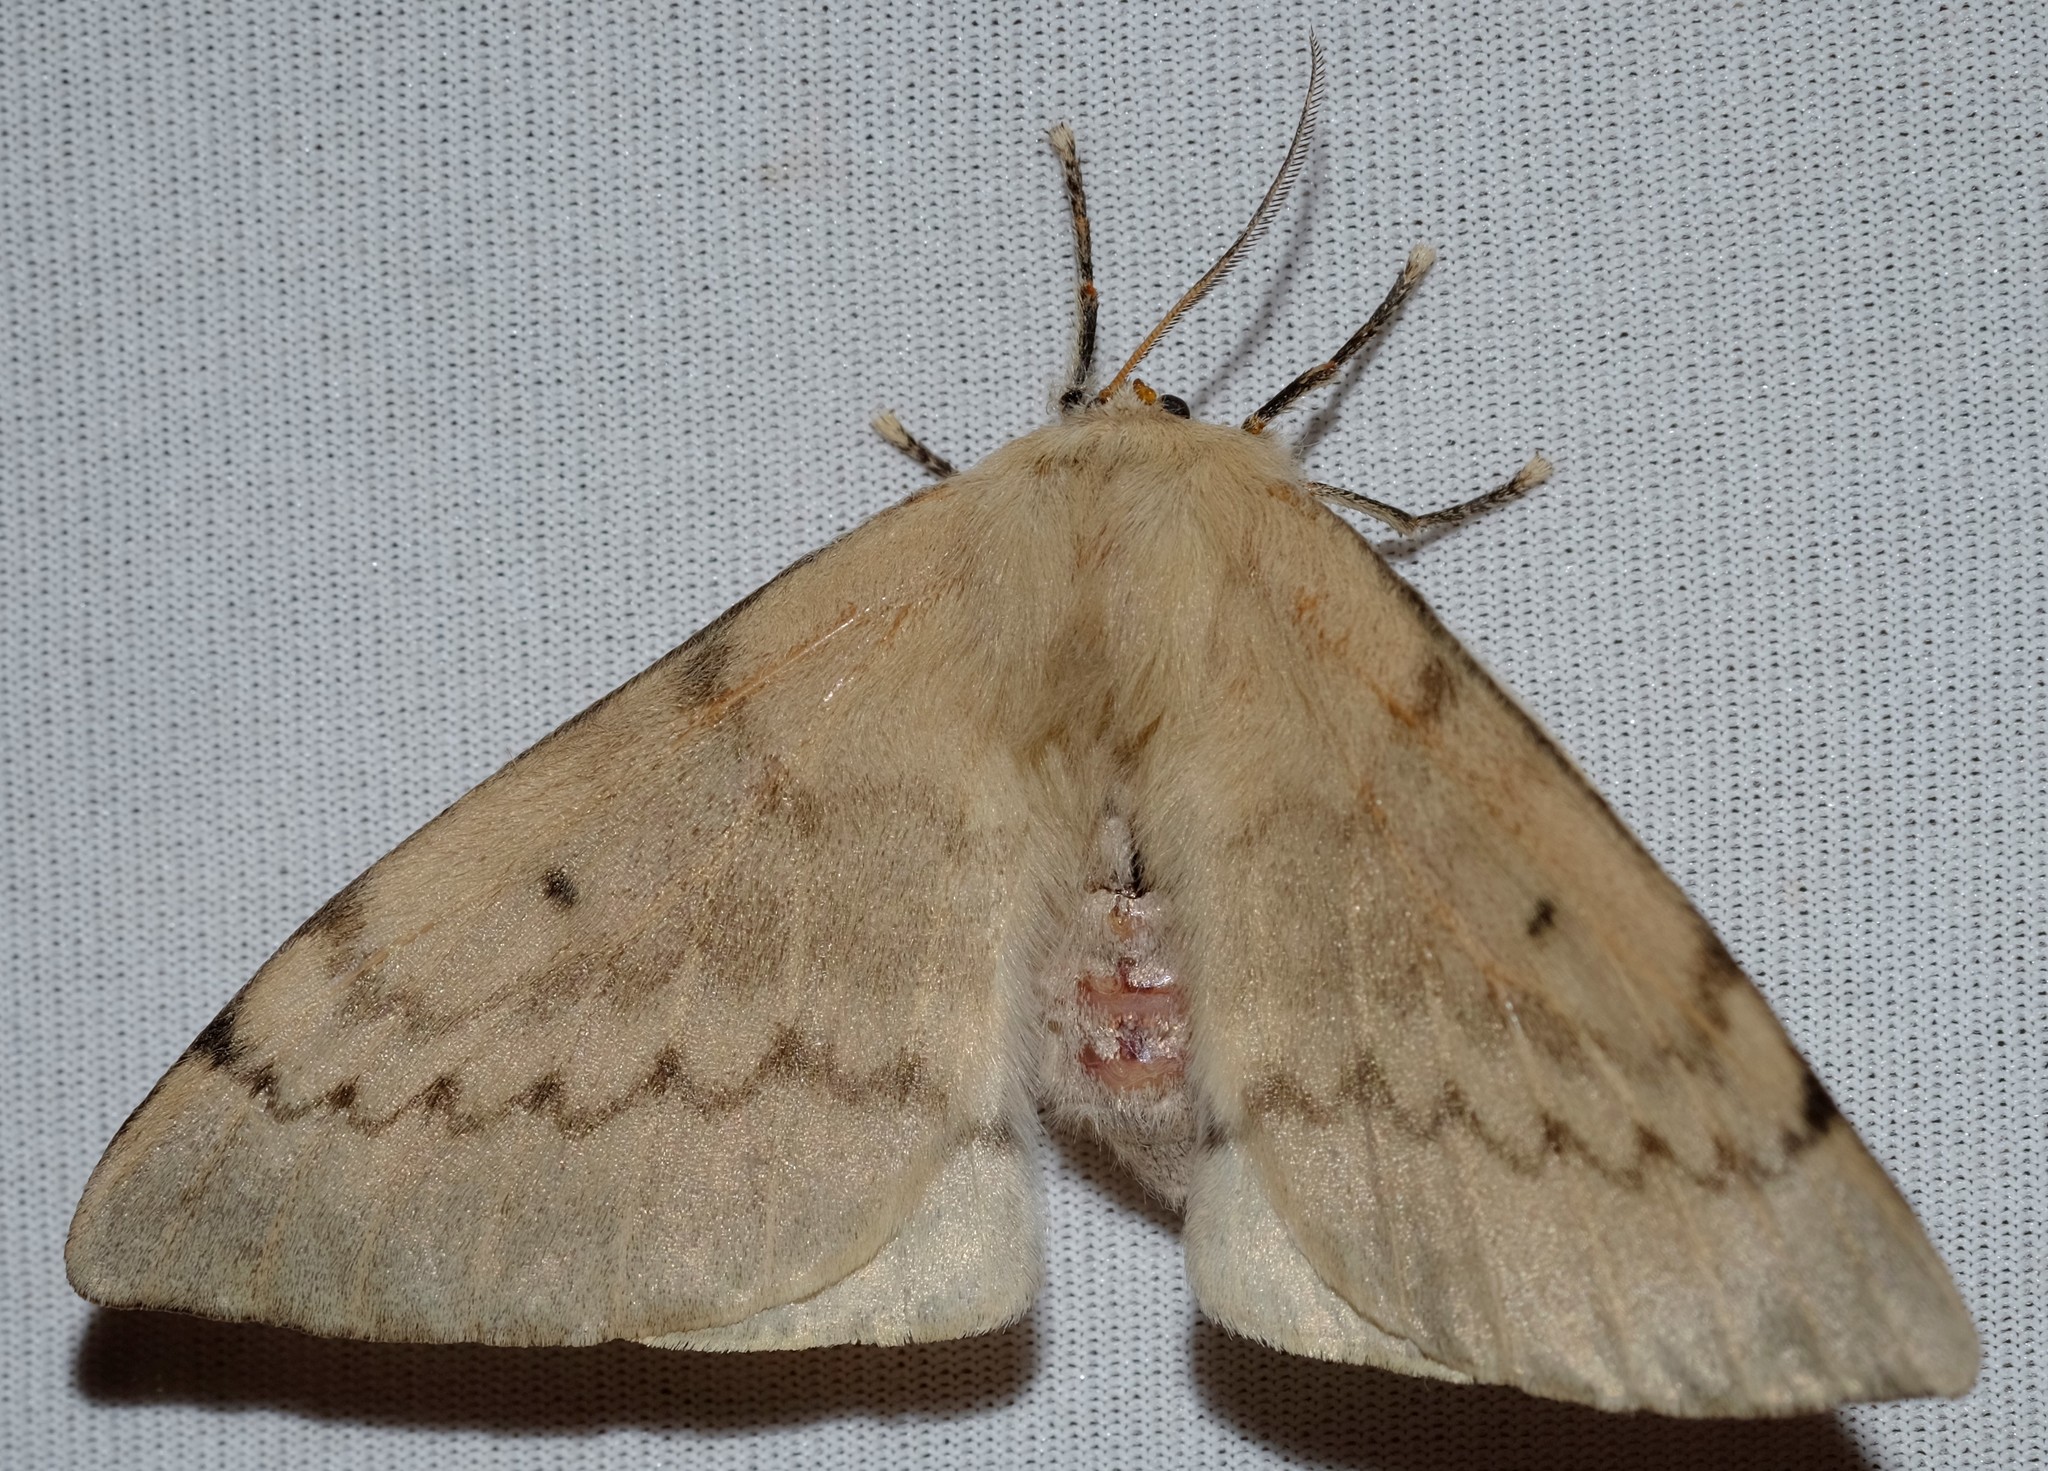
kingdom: Animalia
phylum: Arthropoda
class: Insecta
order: Lepidoptera
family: Anthelidae
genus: Chenuala
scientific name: Chenuala heliaspis
